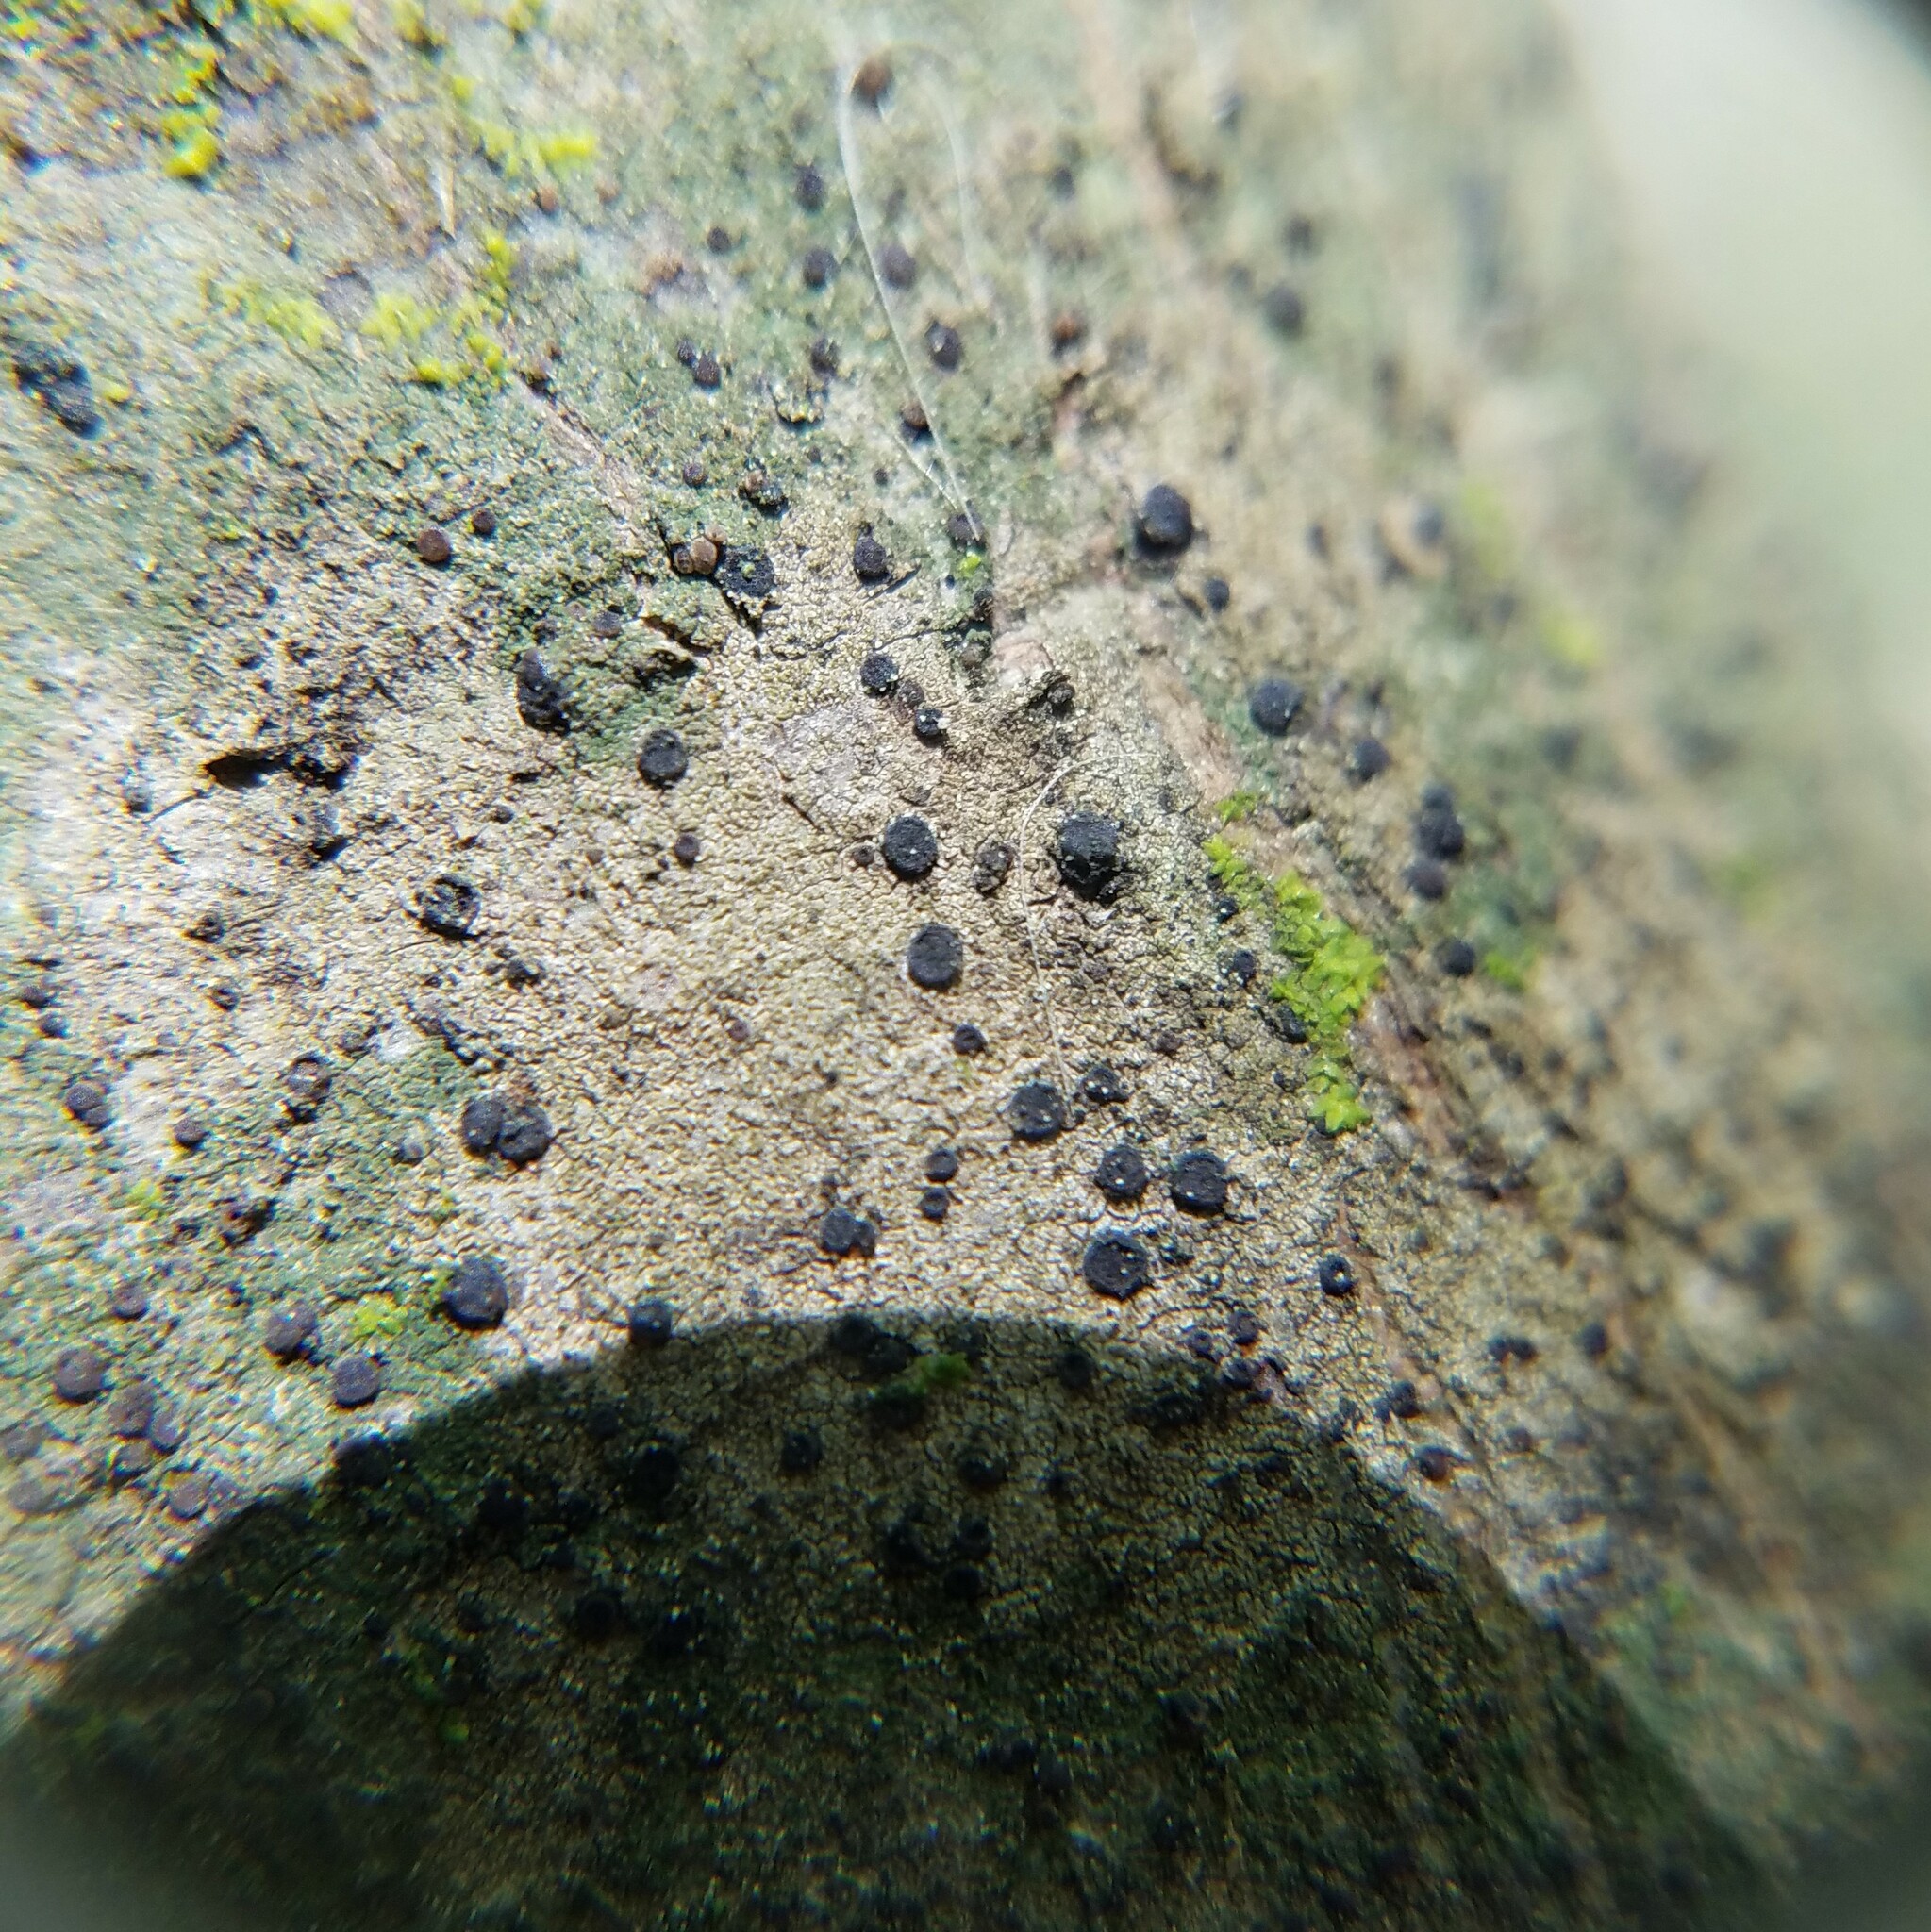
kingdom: Fungi
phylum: Ascomycota
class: Lecanoromycetes
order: Lecanorales
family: Ramalinaceae
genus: Bacidia
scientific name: Bacidia purpurans
